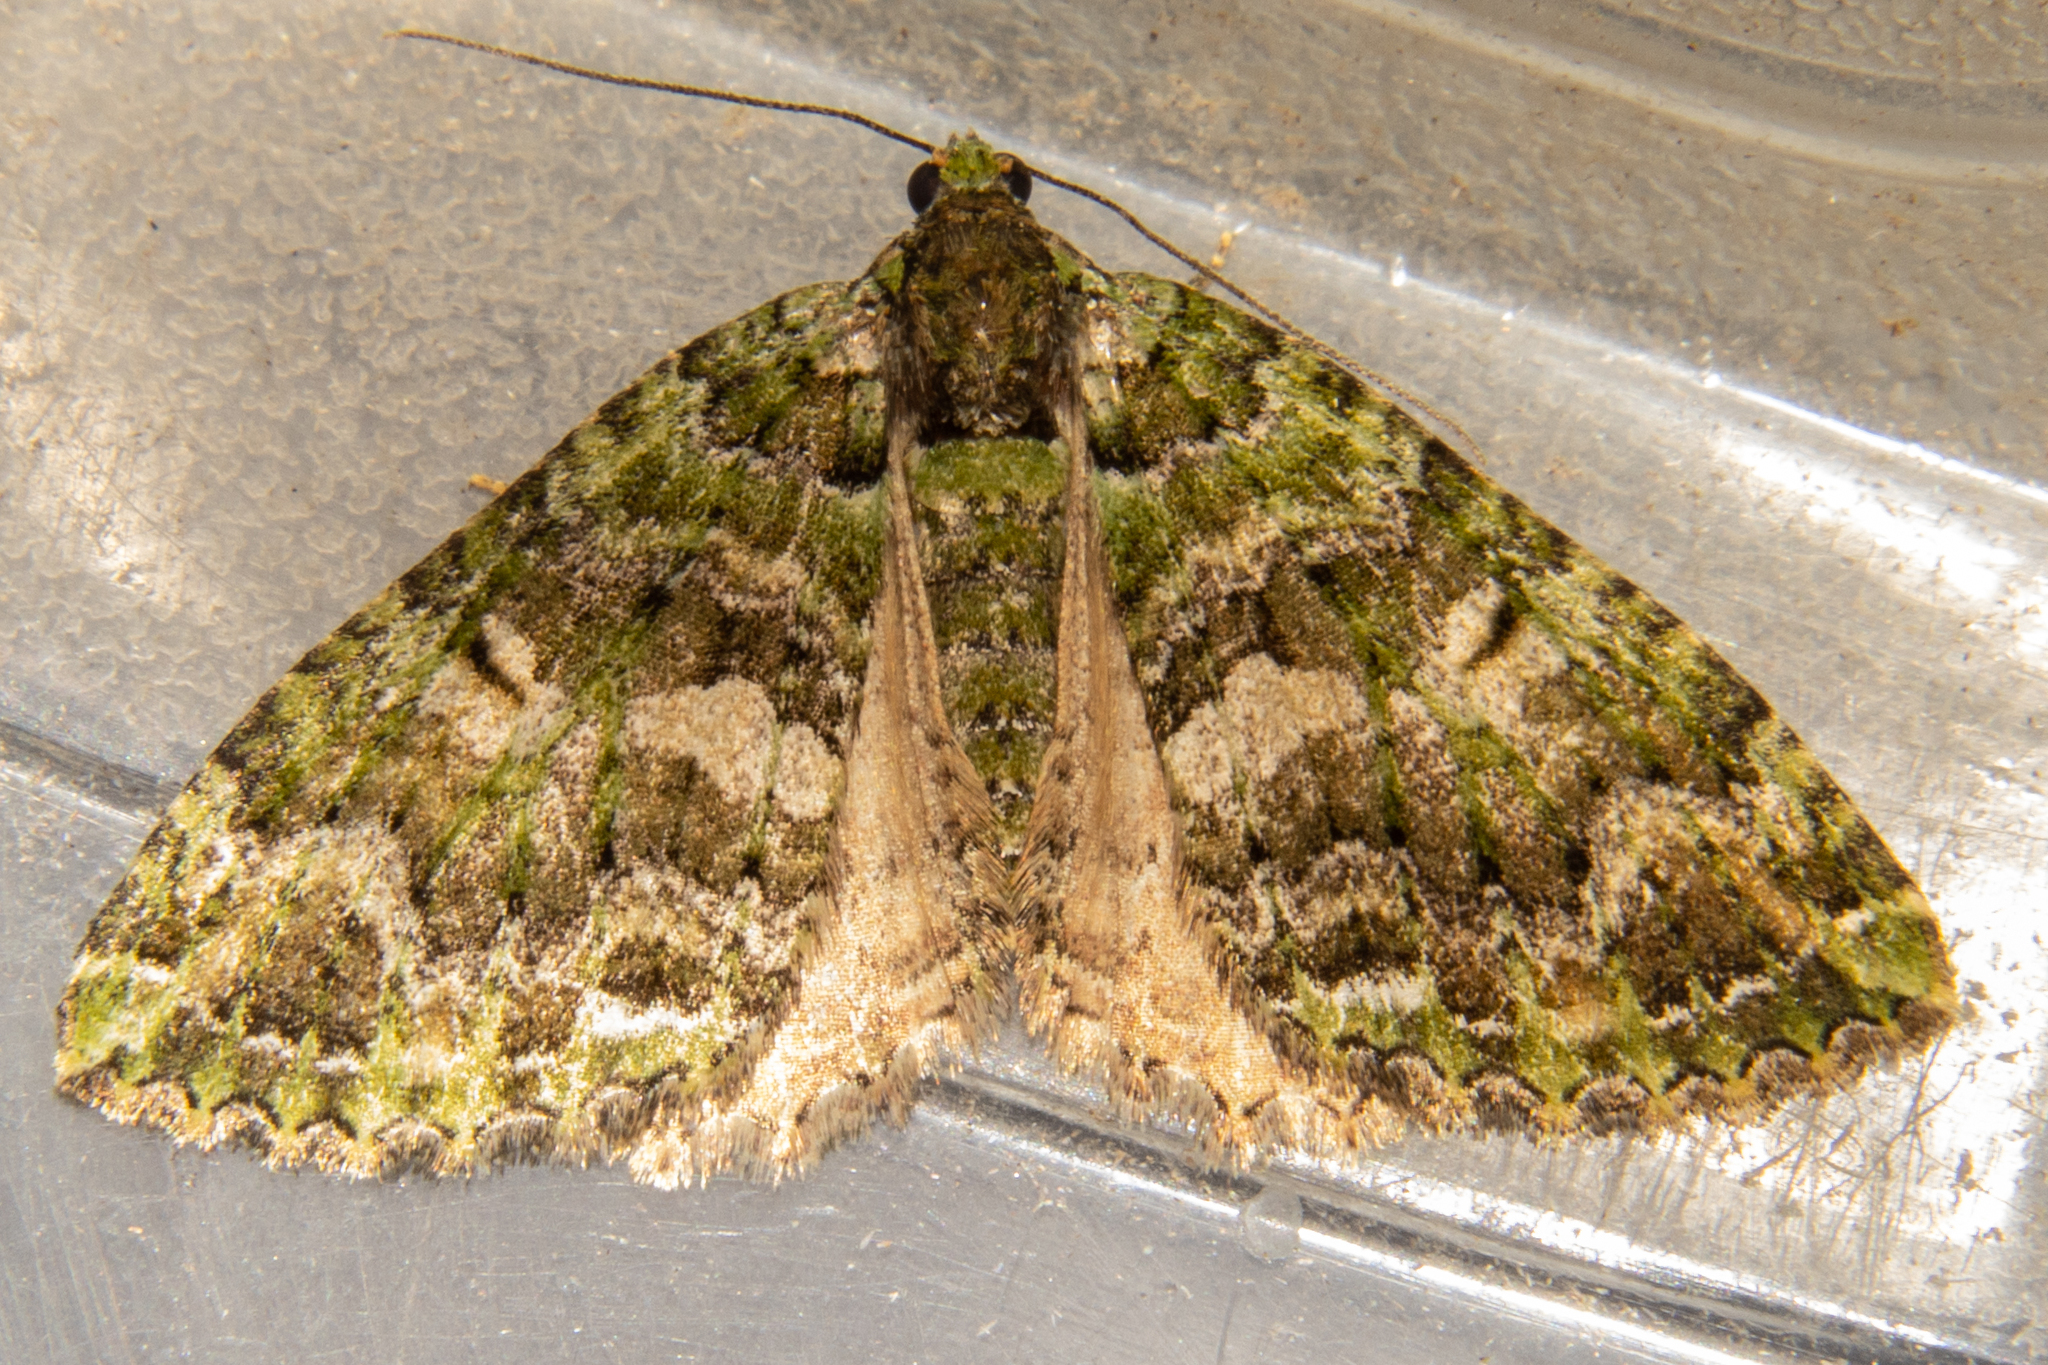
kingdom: Animalia
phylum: Arthropoda
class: Insecta
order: Lepidoptera
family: Geometridae
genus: Austrocidaria
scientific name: Austrocidaria similata
